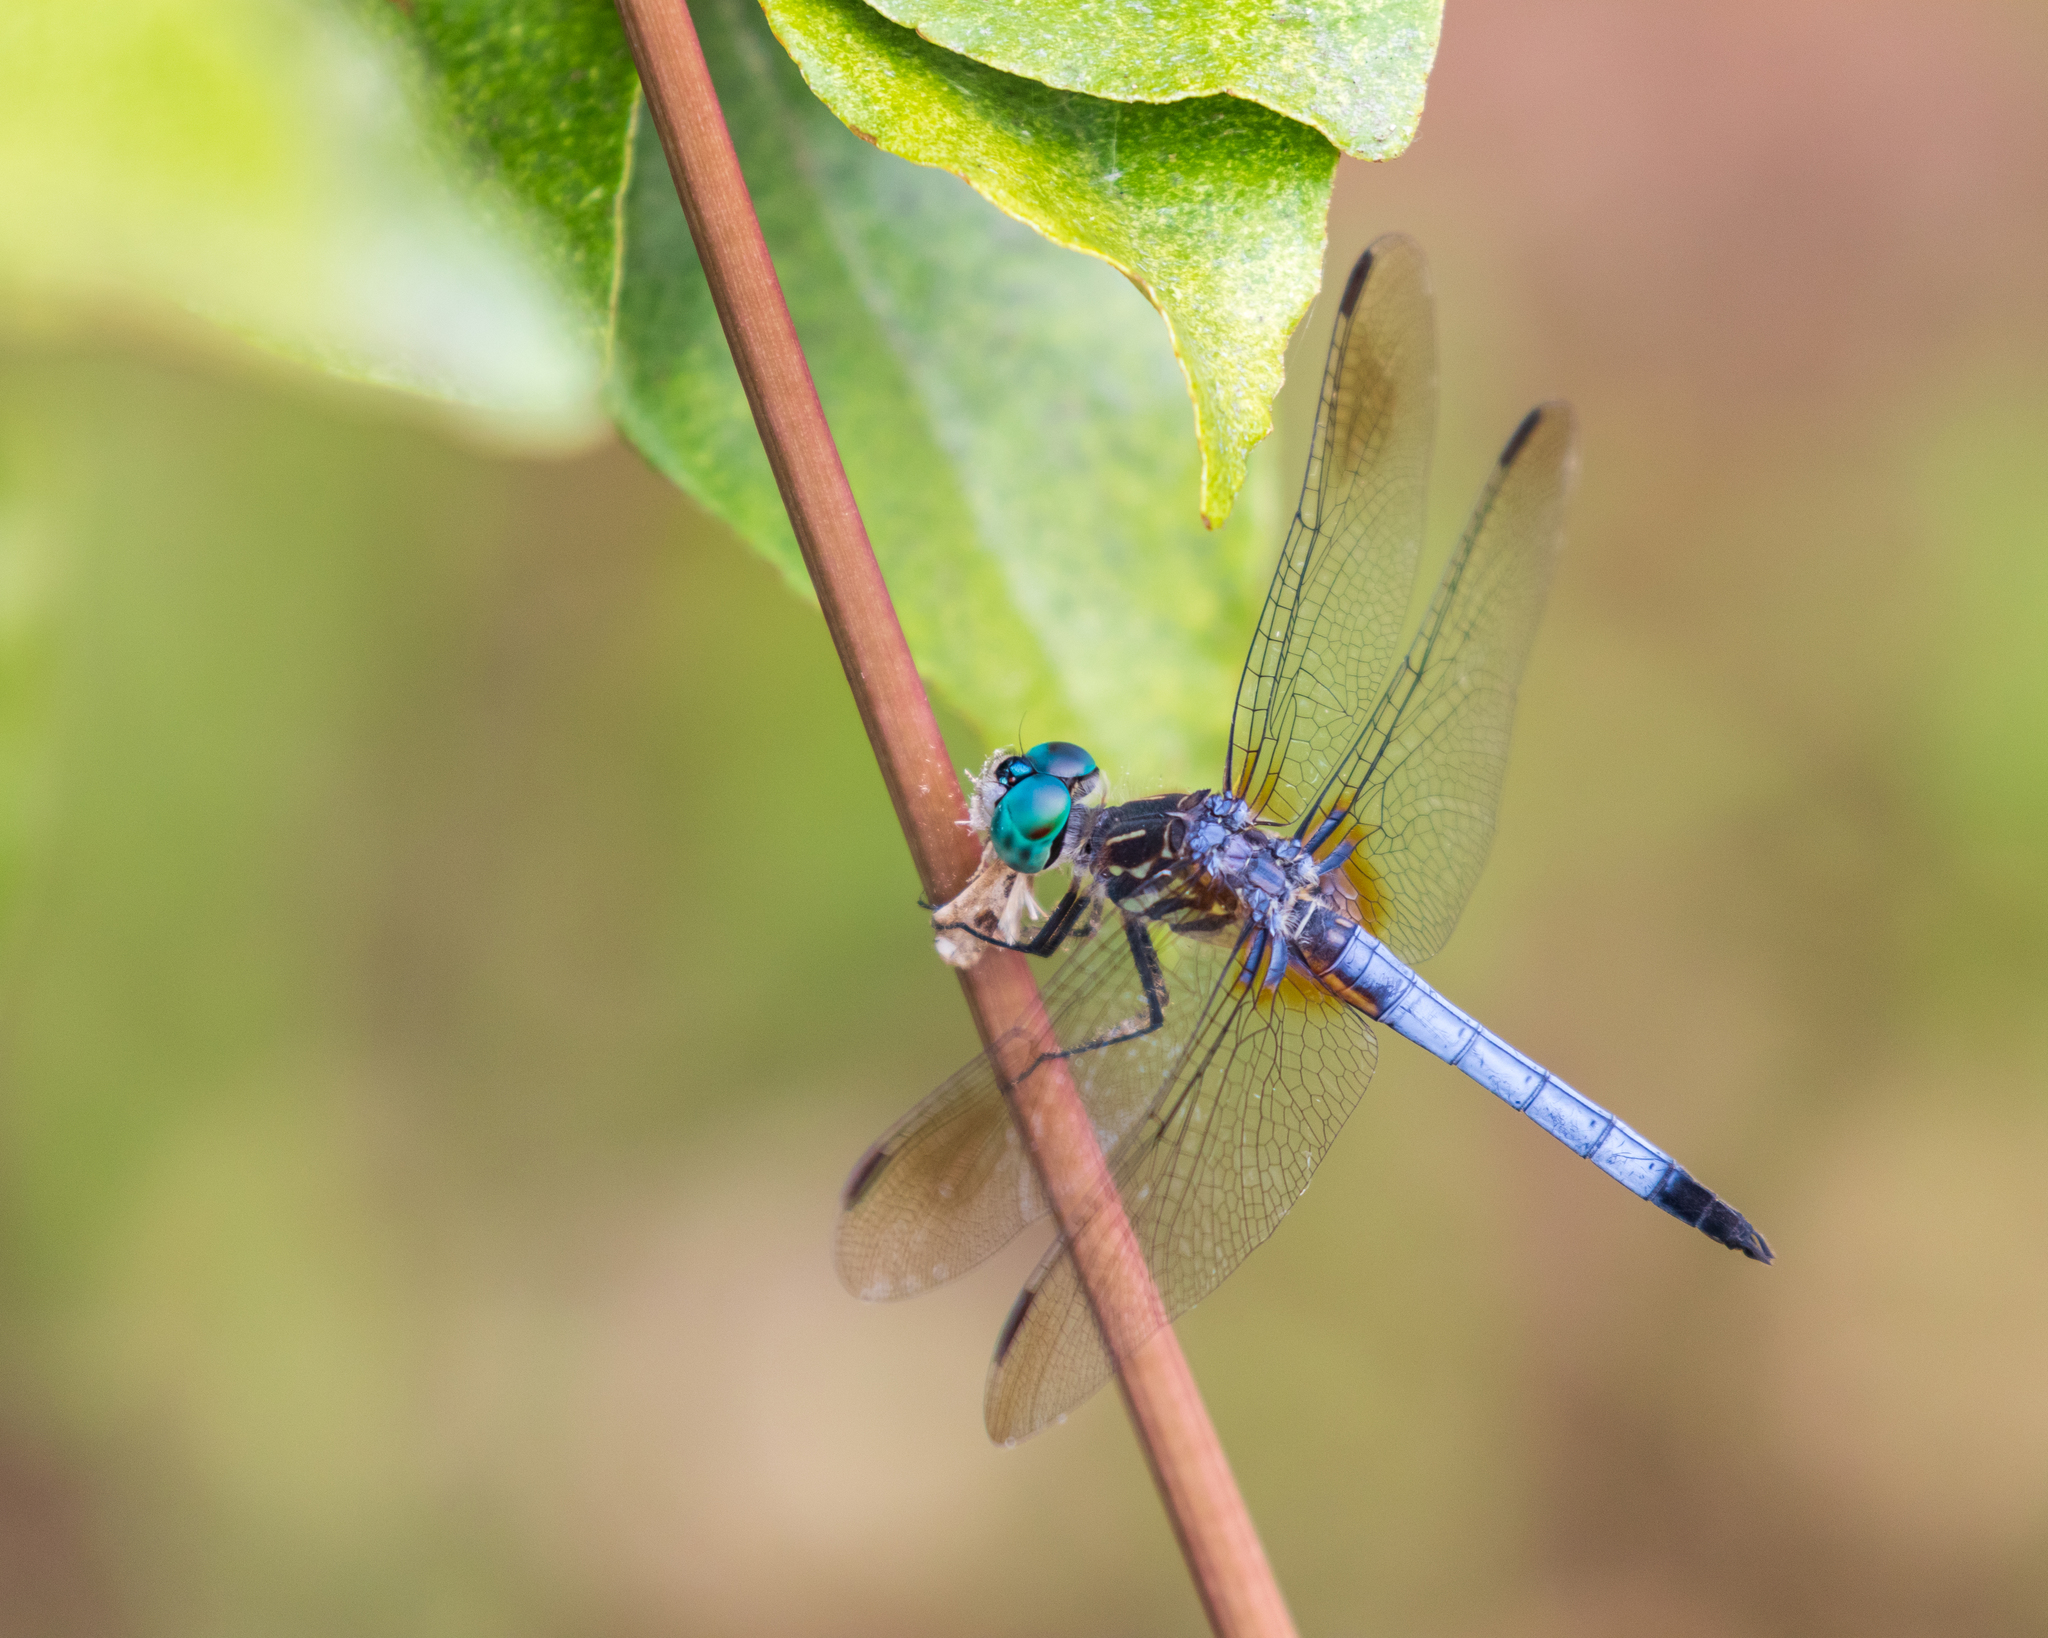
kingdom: Animalia
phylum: Arthropoda
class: Insecta
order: Odonata
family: Libellulidae
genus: Pachydiplax
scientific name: Pachydiplax longipennis
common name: Blue dasher
